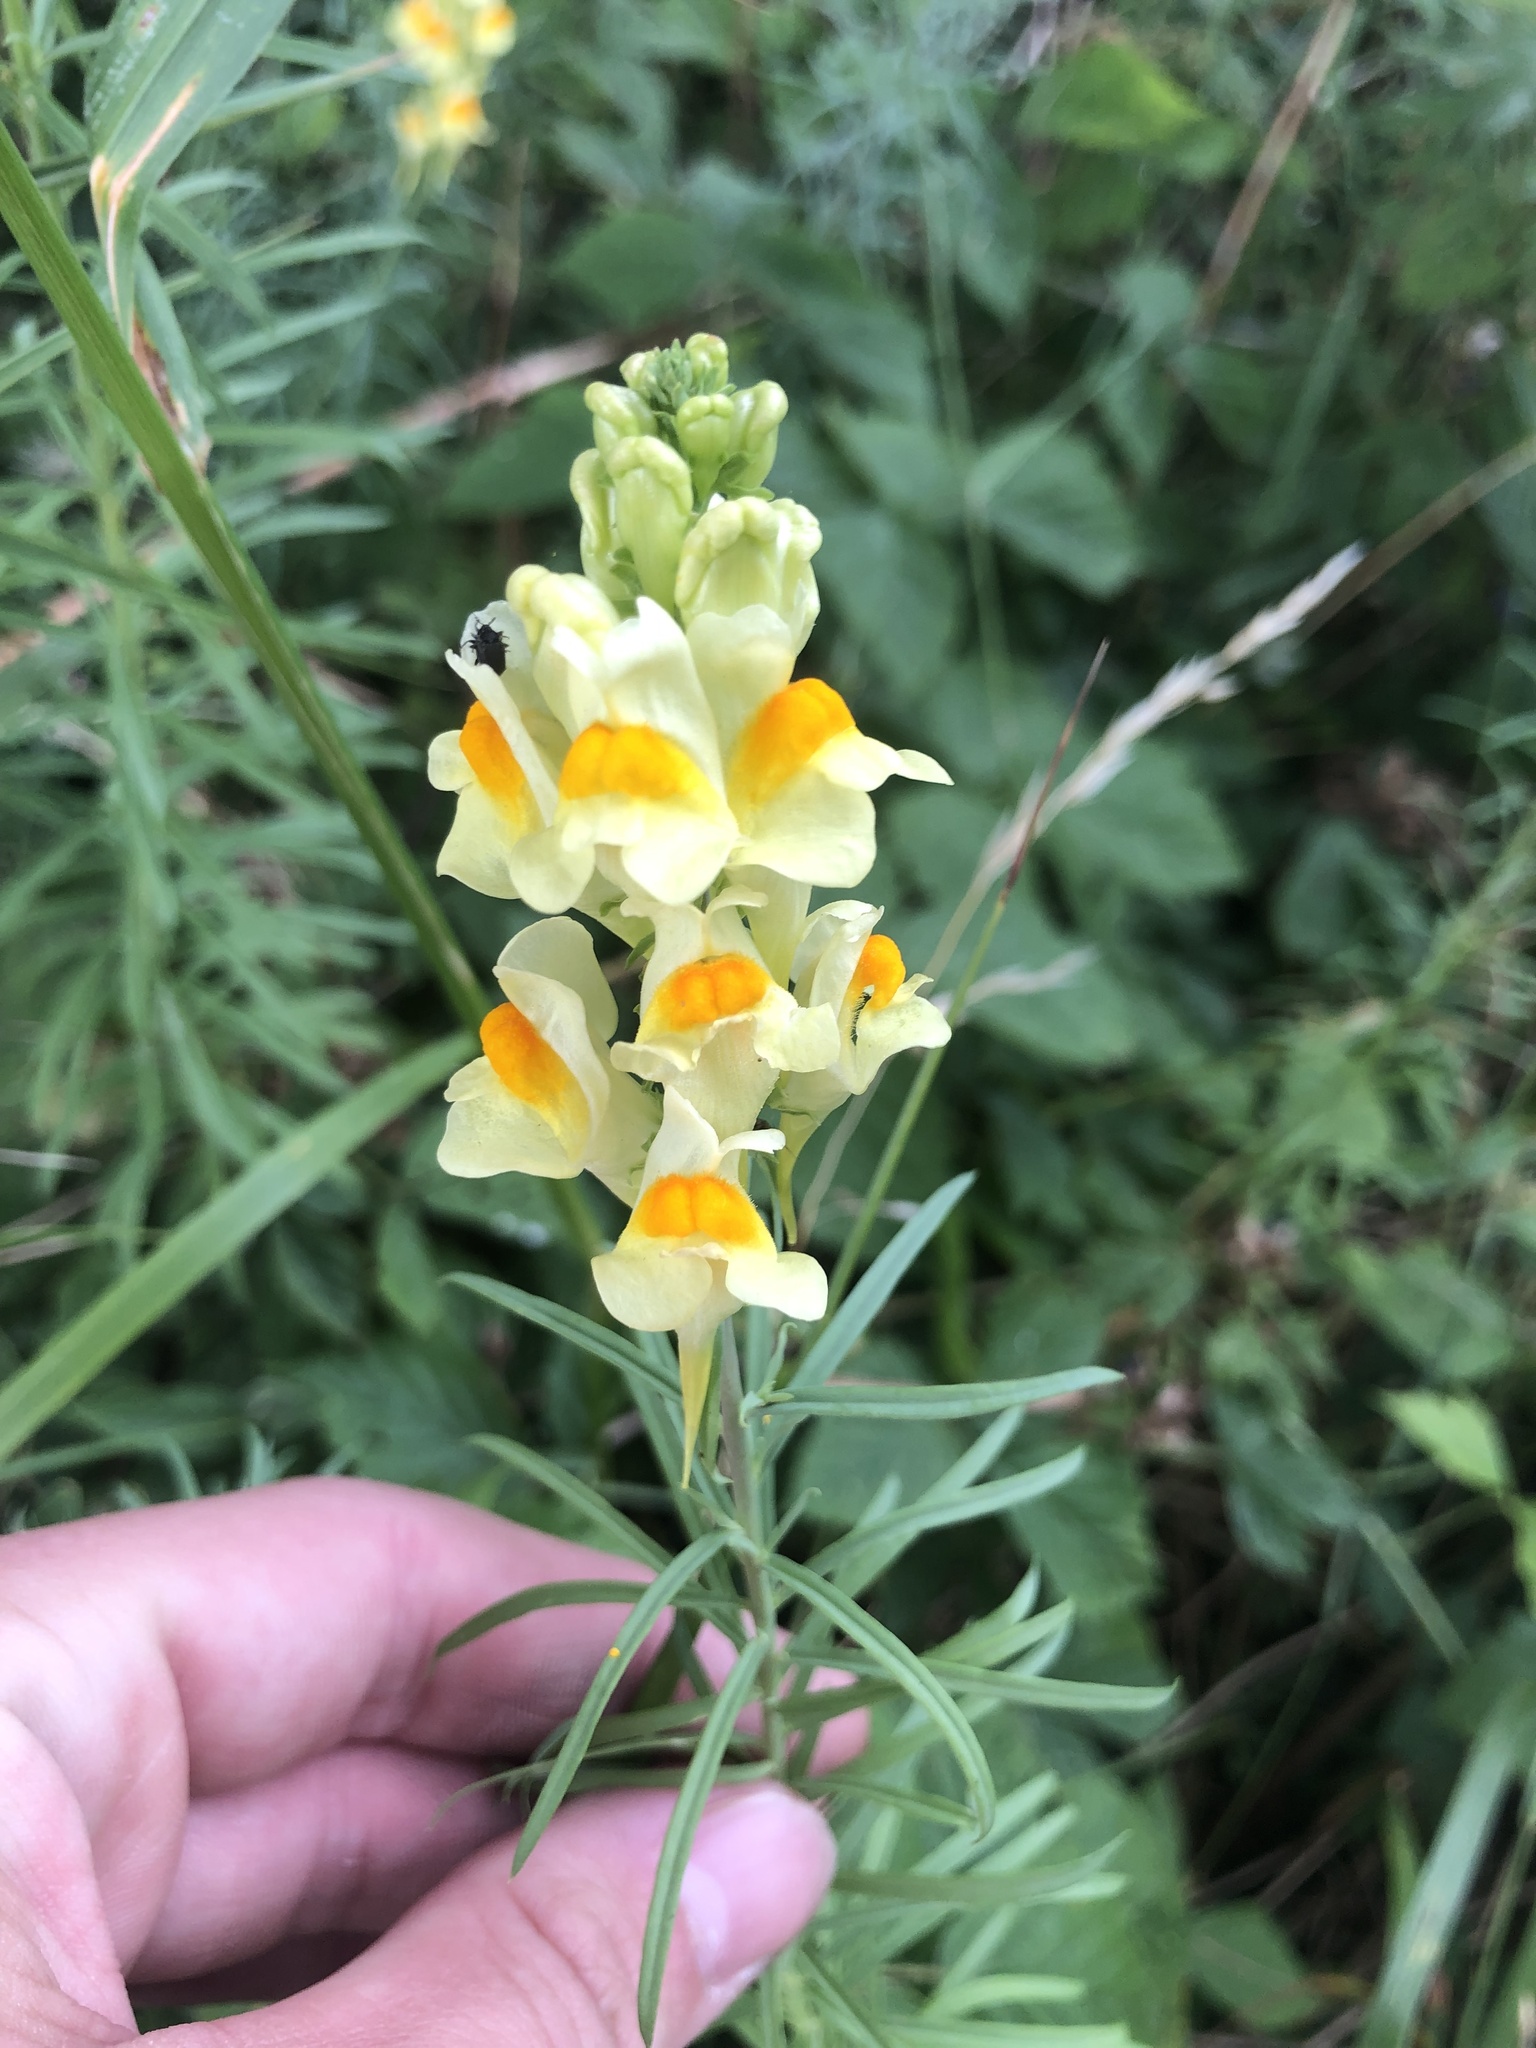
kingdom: Plantae
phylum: Tracheophyta
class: Magnoliopsida
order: Lamiales
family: Plantaginaceae
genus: Linaria
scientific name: Linaria vulgaris
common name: Butter and eggs
